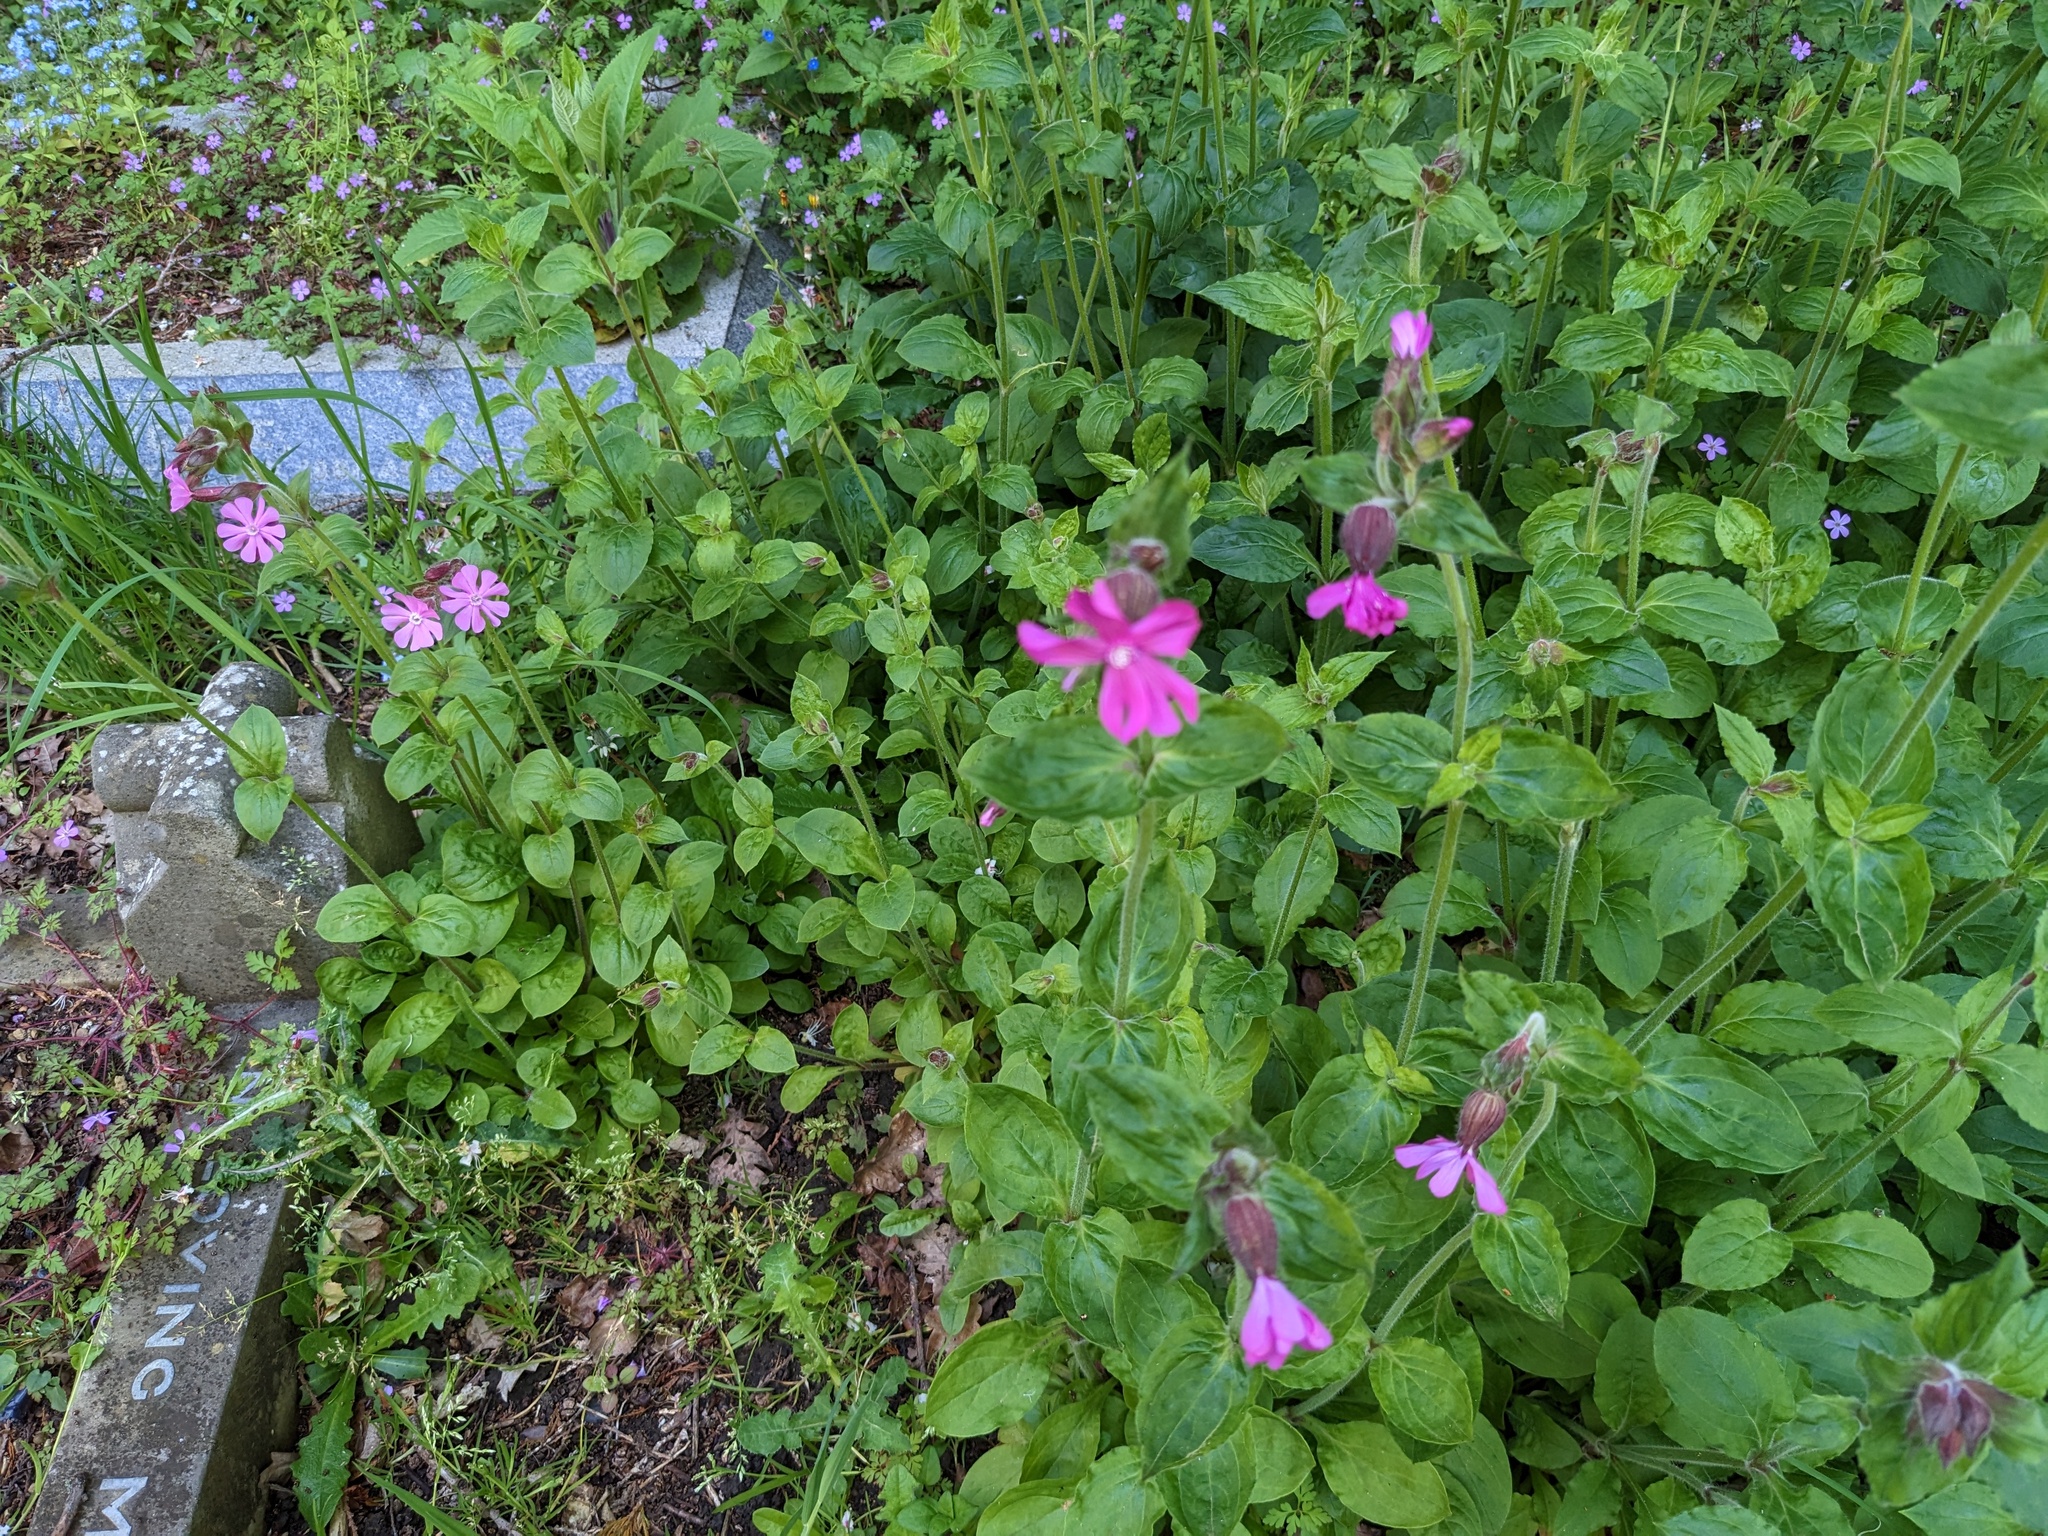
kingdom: Plantae
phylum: Tracheophyta
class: Magnoliopsida
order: Caryophyllales
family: Caryophyllaceae
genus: Silene
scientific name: Silene dioica
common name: Red campion
